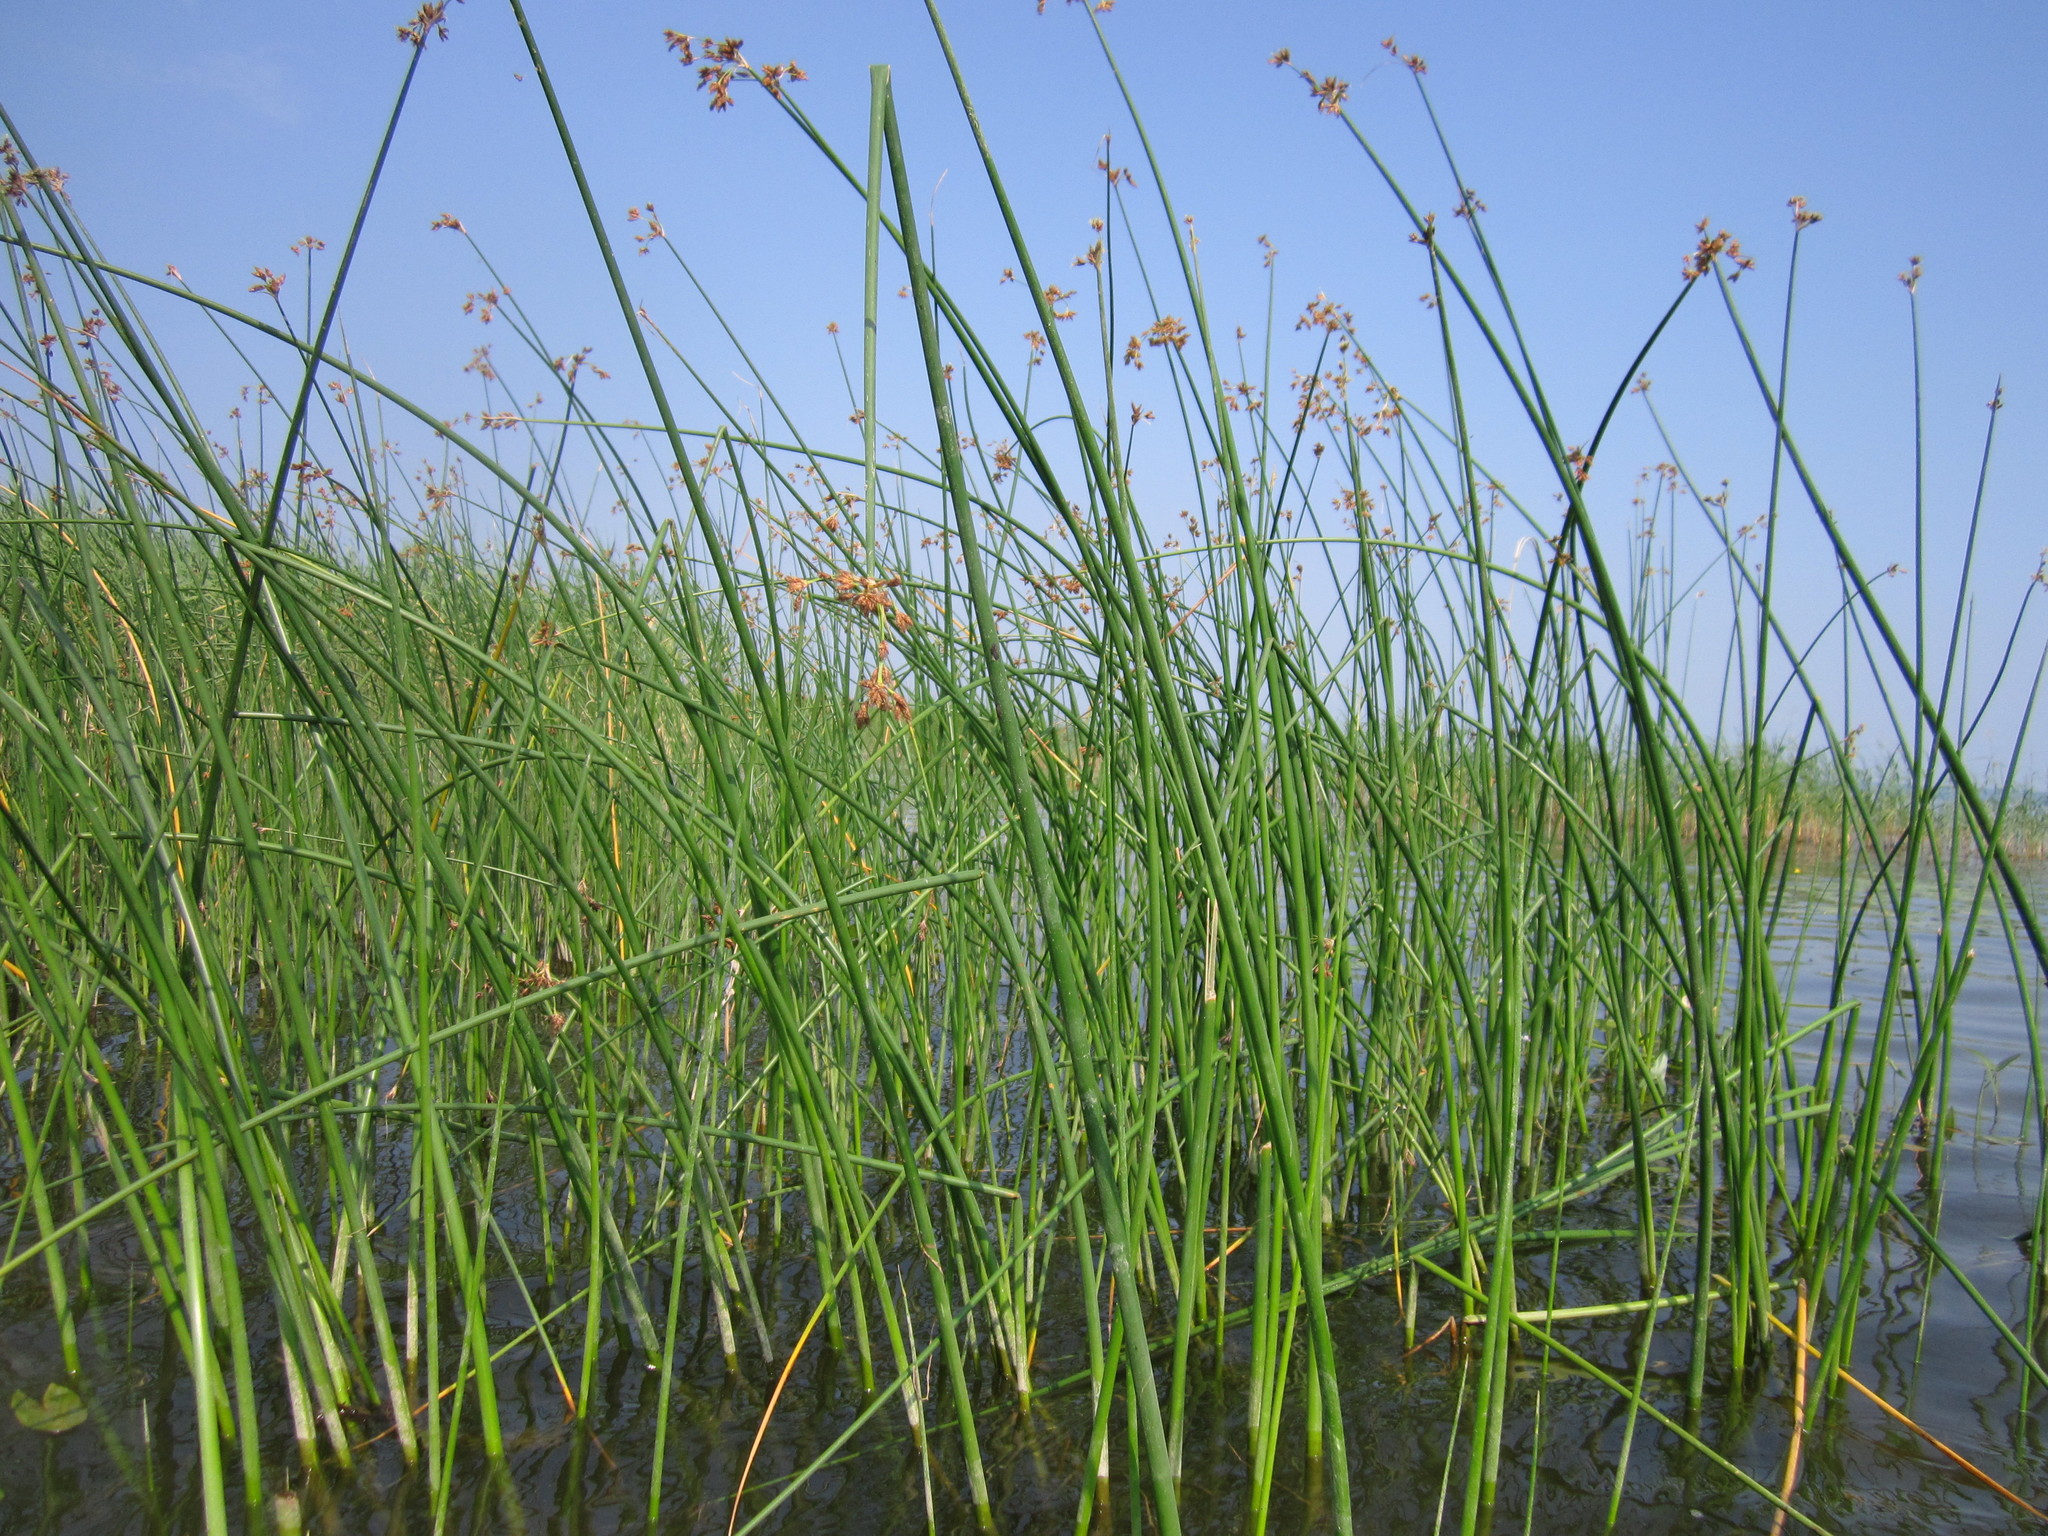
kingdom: Plantae
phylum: Tracheophyta
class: Liliopsida
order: Poales
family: Cyperaceae
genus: Schoenoplectus
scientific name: Schoenoplectus lacustris
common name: Common club-rush
